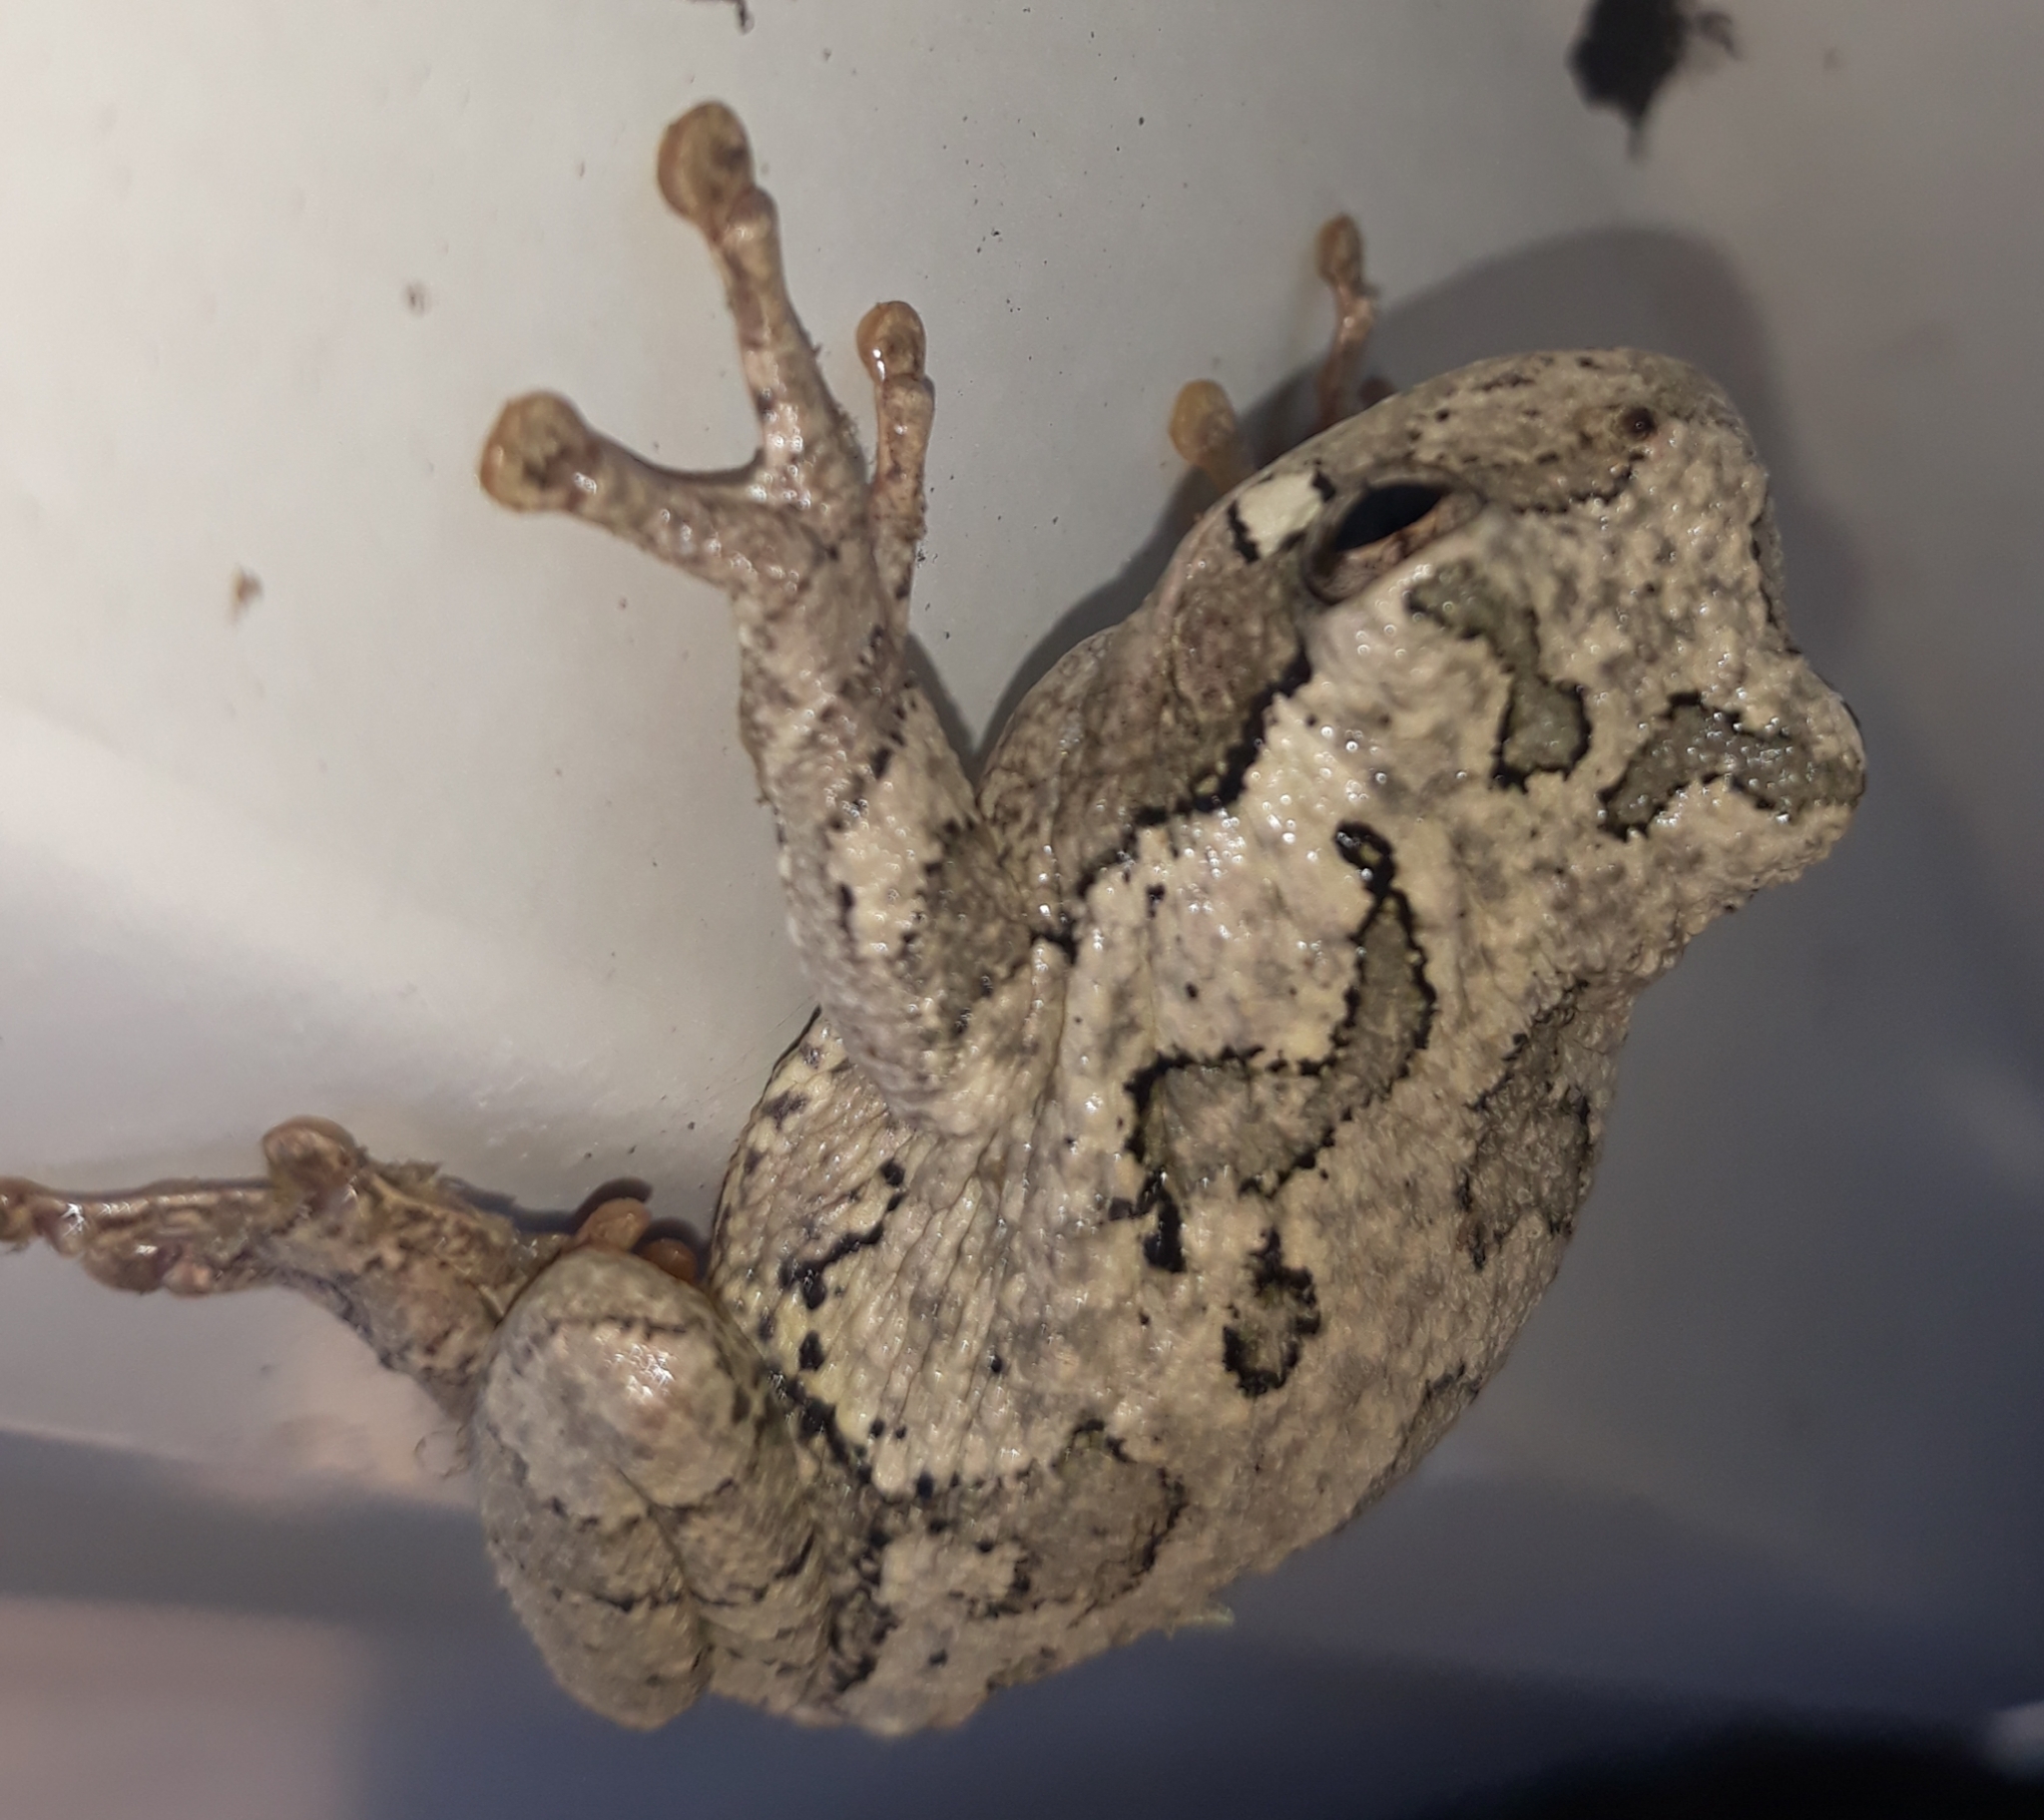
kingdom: Animalia
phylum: Chordata
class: Amphibia
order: Anura
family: Hylidae
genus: Hyla
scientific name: Hyla
